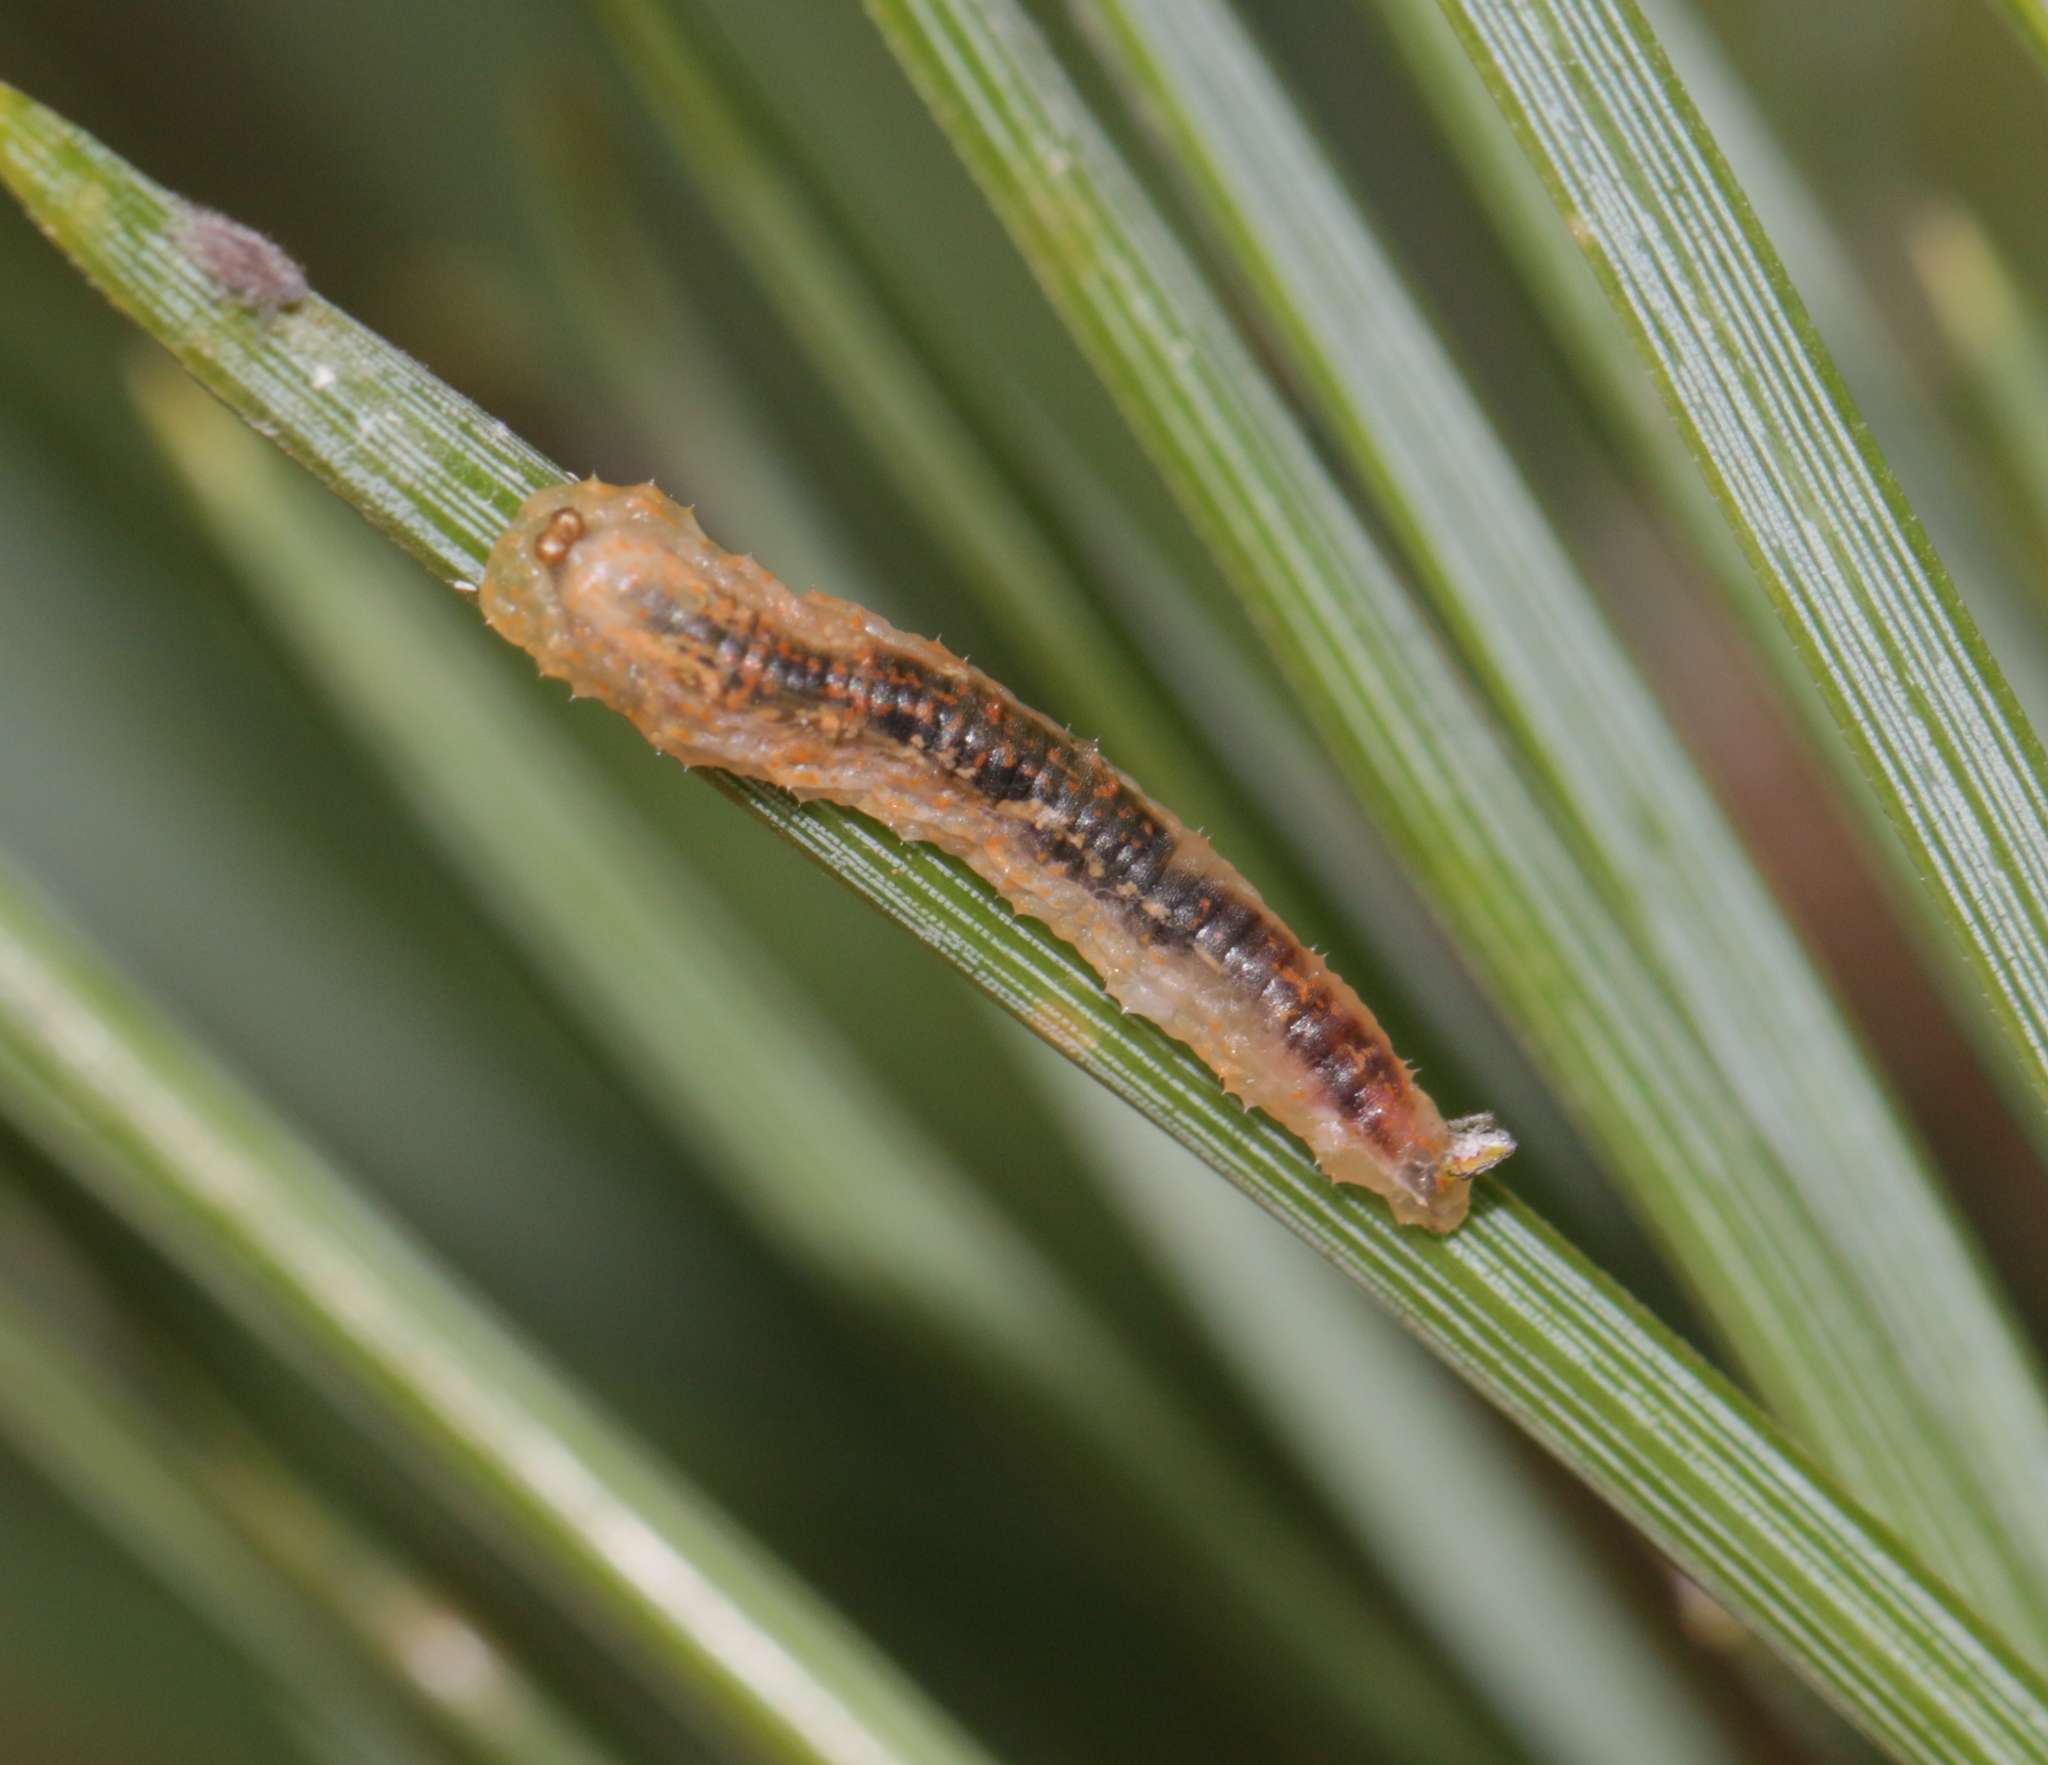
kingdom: Animalia
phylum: Arthropoda
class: Insecta
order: Diptera
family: Syrphidae
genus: Syrphus
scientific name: Syrphus
